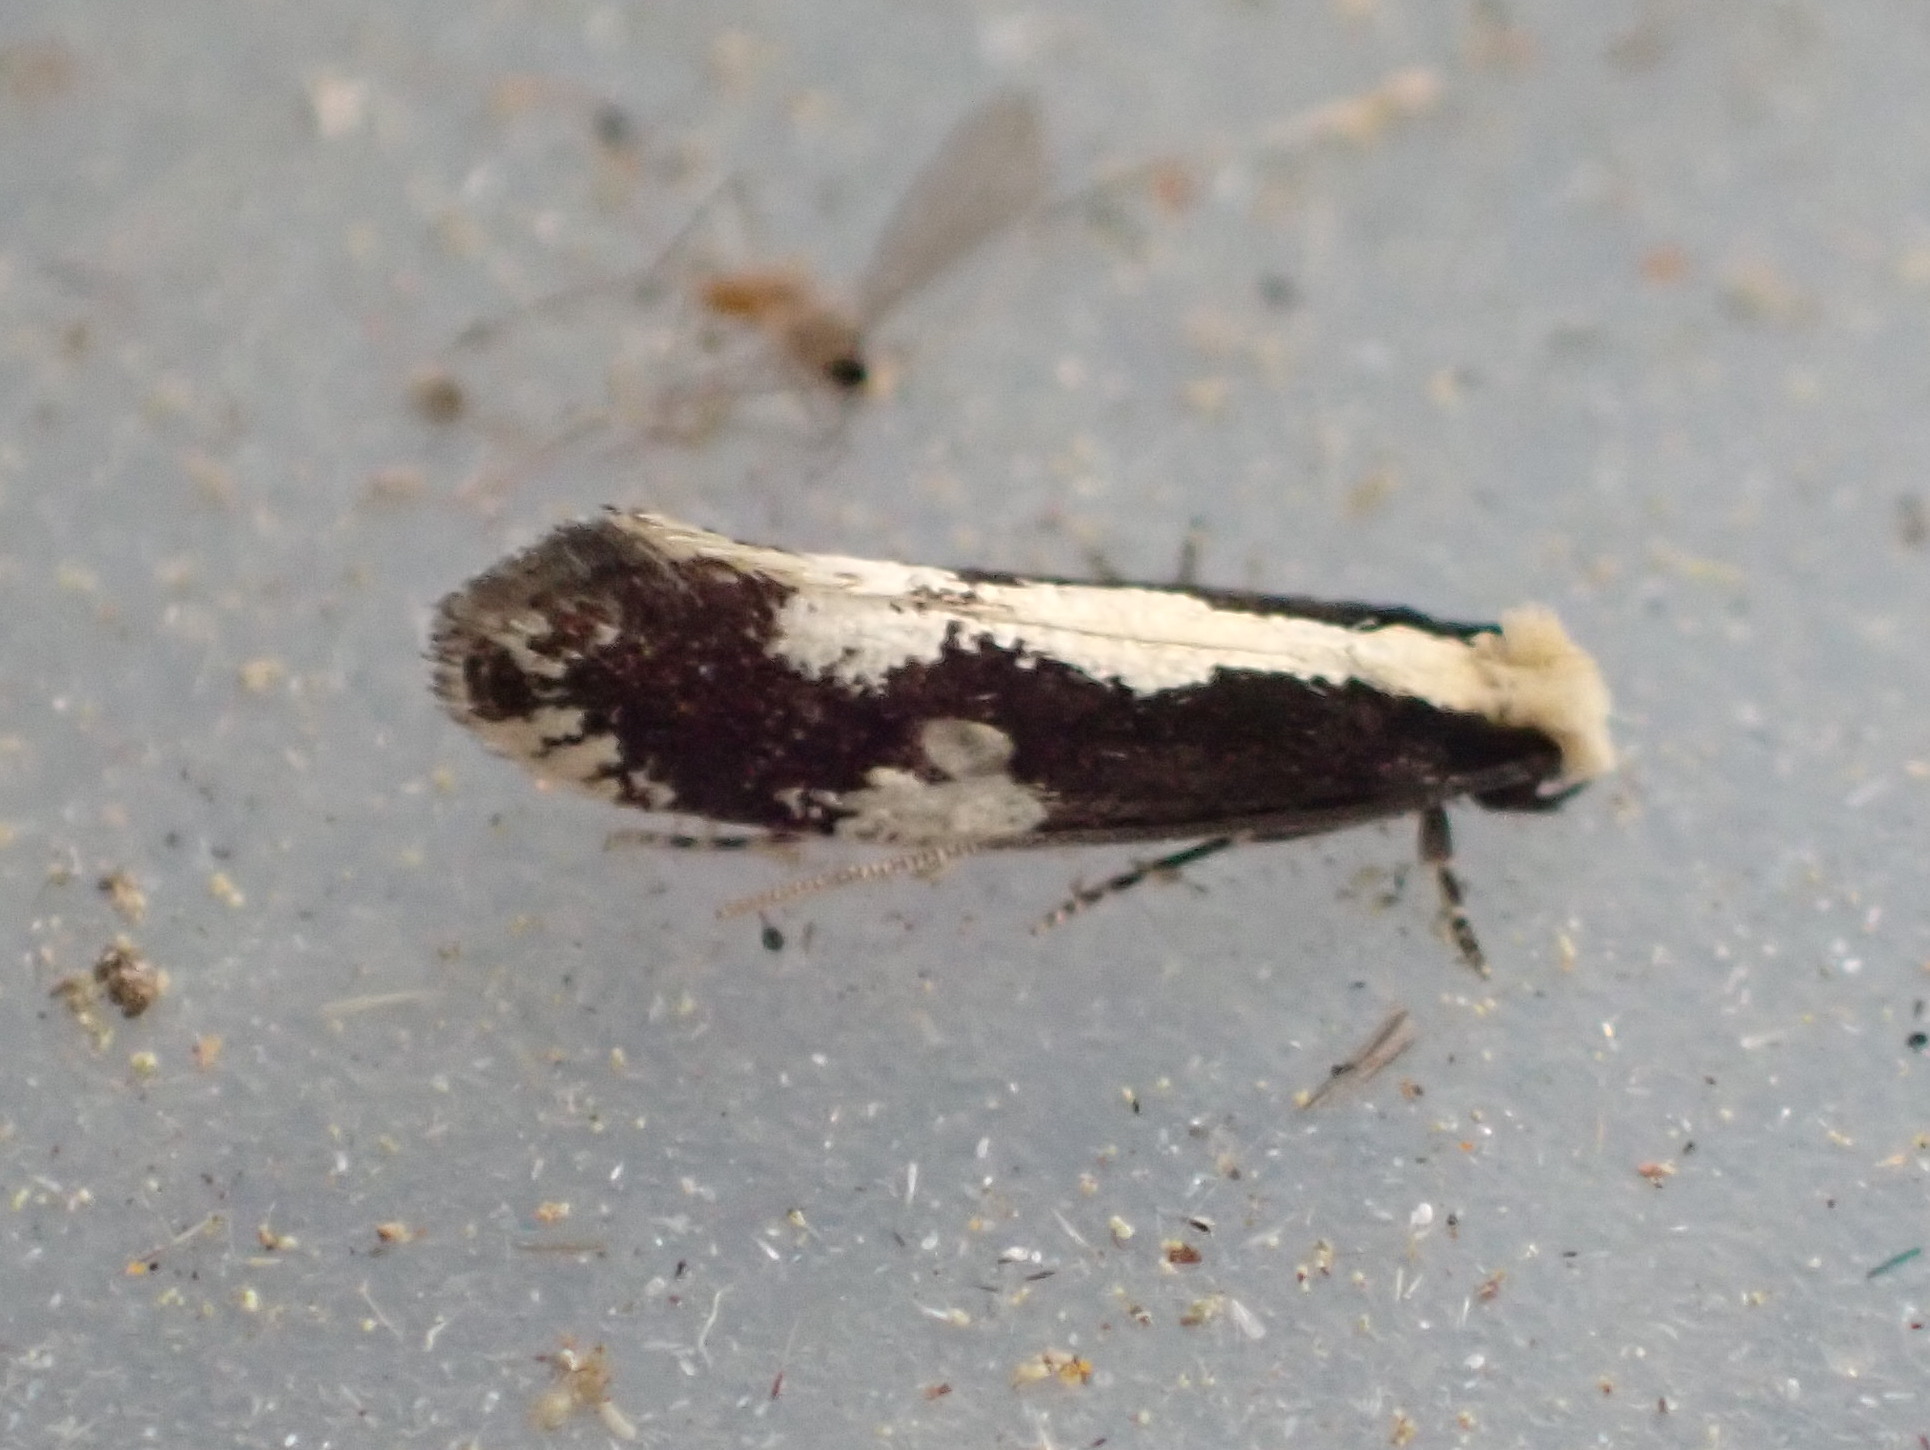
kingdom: Animalia
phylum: Arthropoda
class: Insecta
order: Lepidoptera
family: Tineidae
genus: Monopis
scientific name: Monopis dorsistrigella
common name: Skunkback monopis moth
